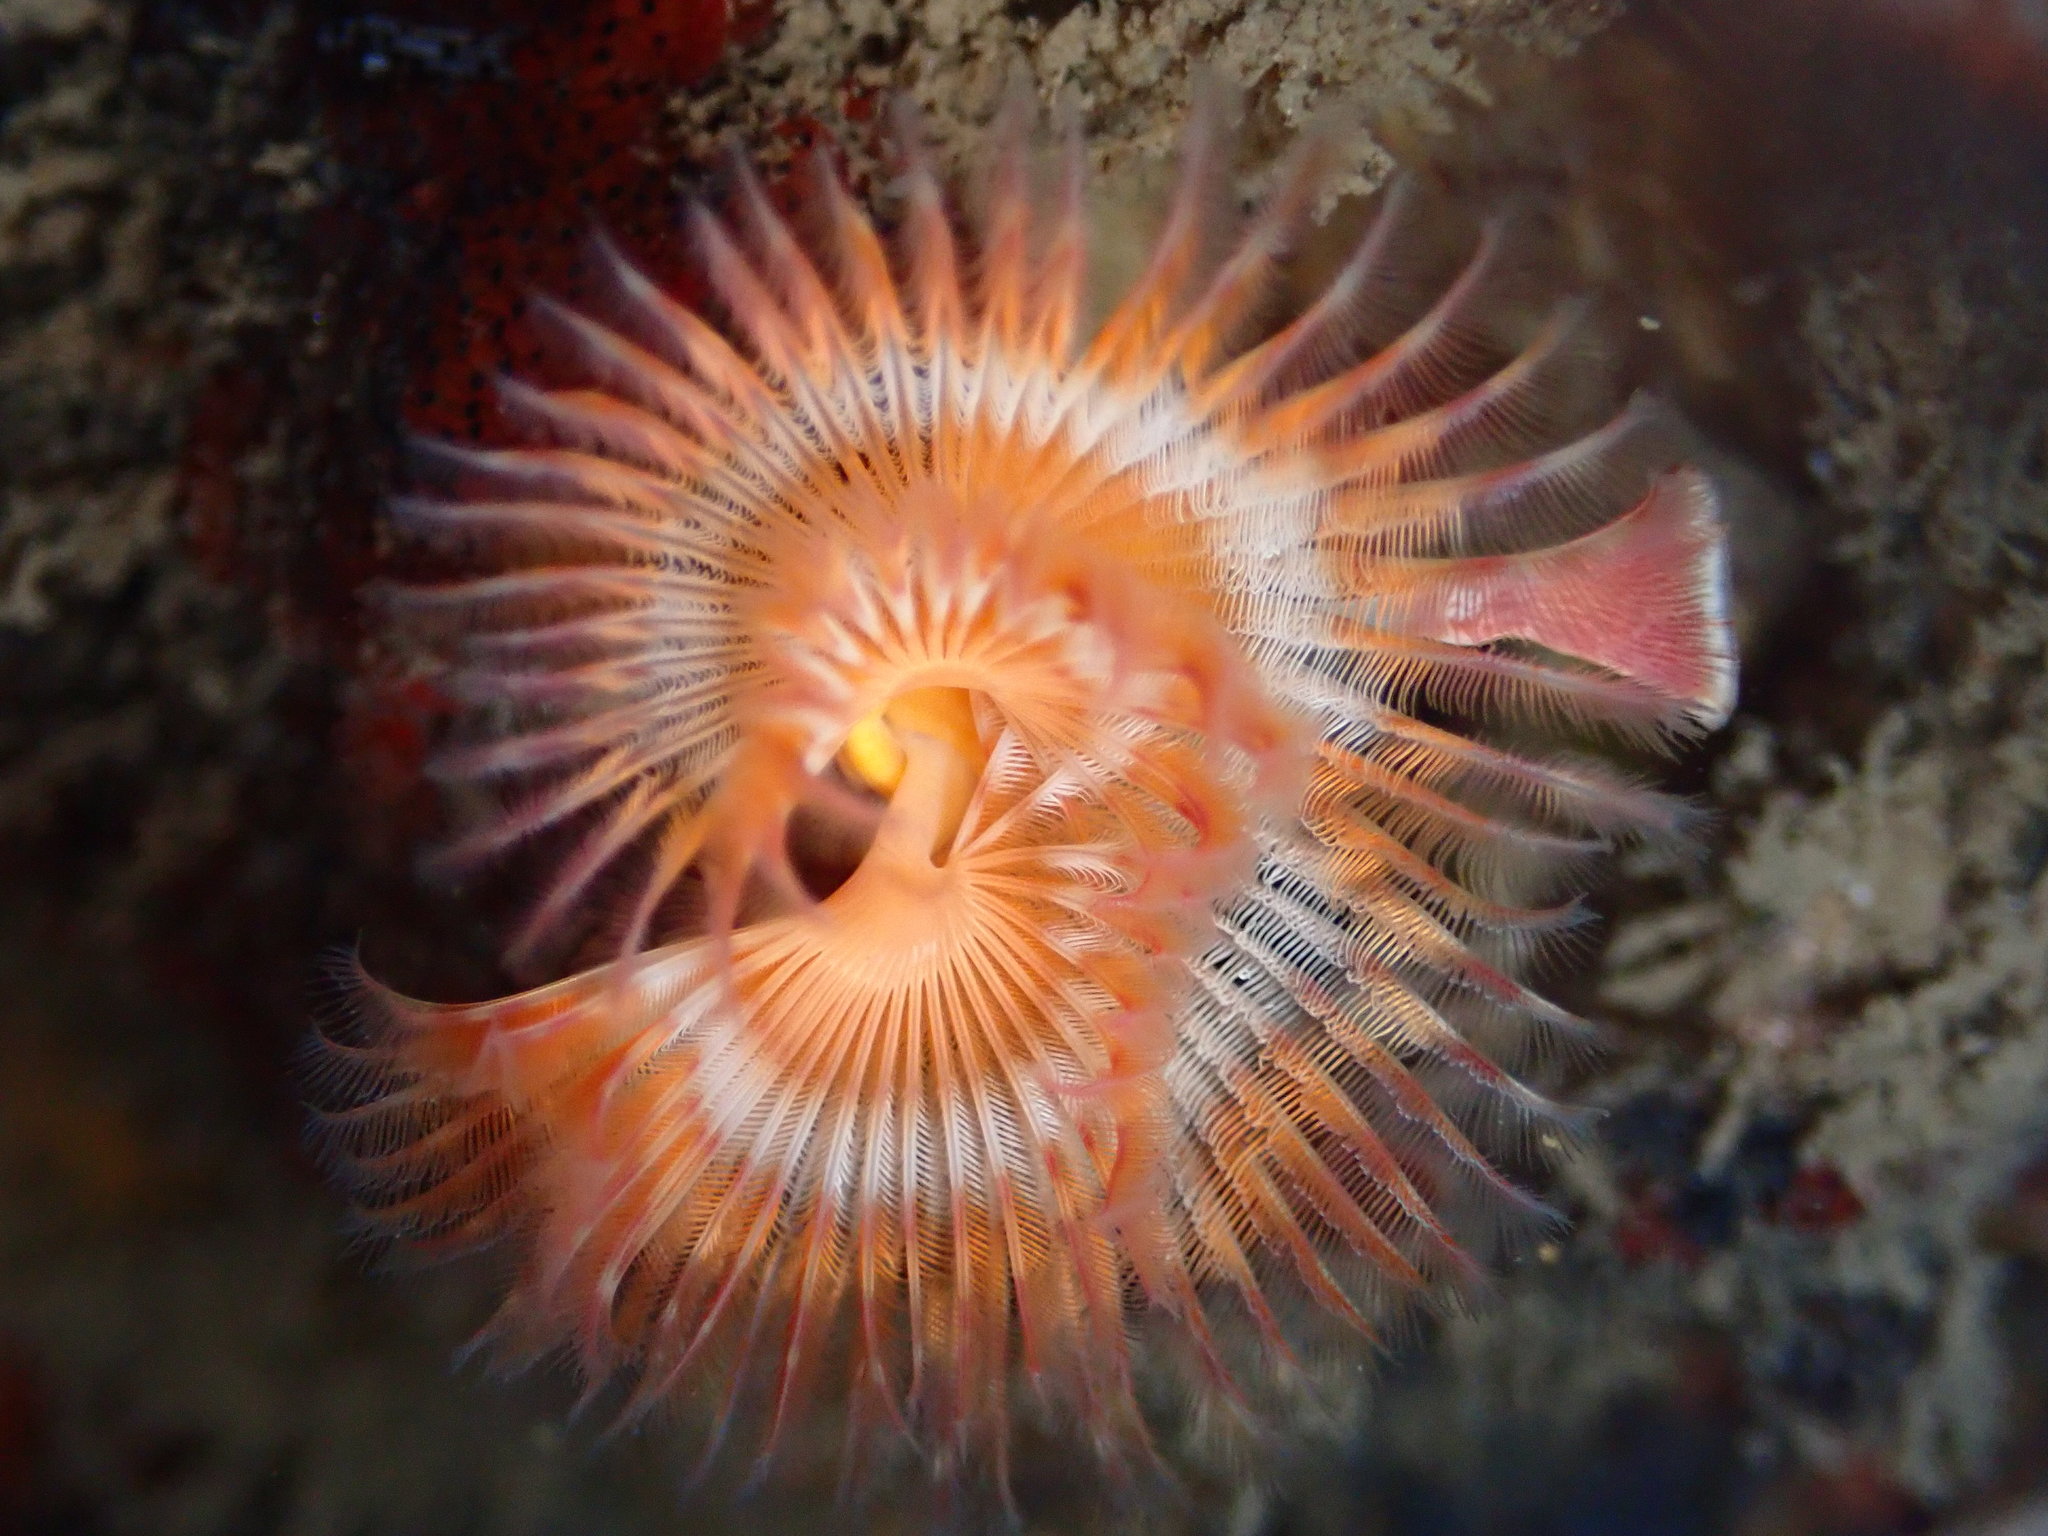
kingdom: Animalia
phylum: Annelida
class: Polychaeta
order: Sabellida
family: Serpulidae
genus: Serpula
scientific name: Serpula columbiana
